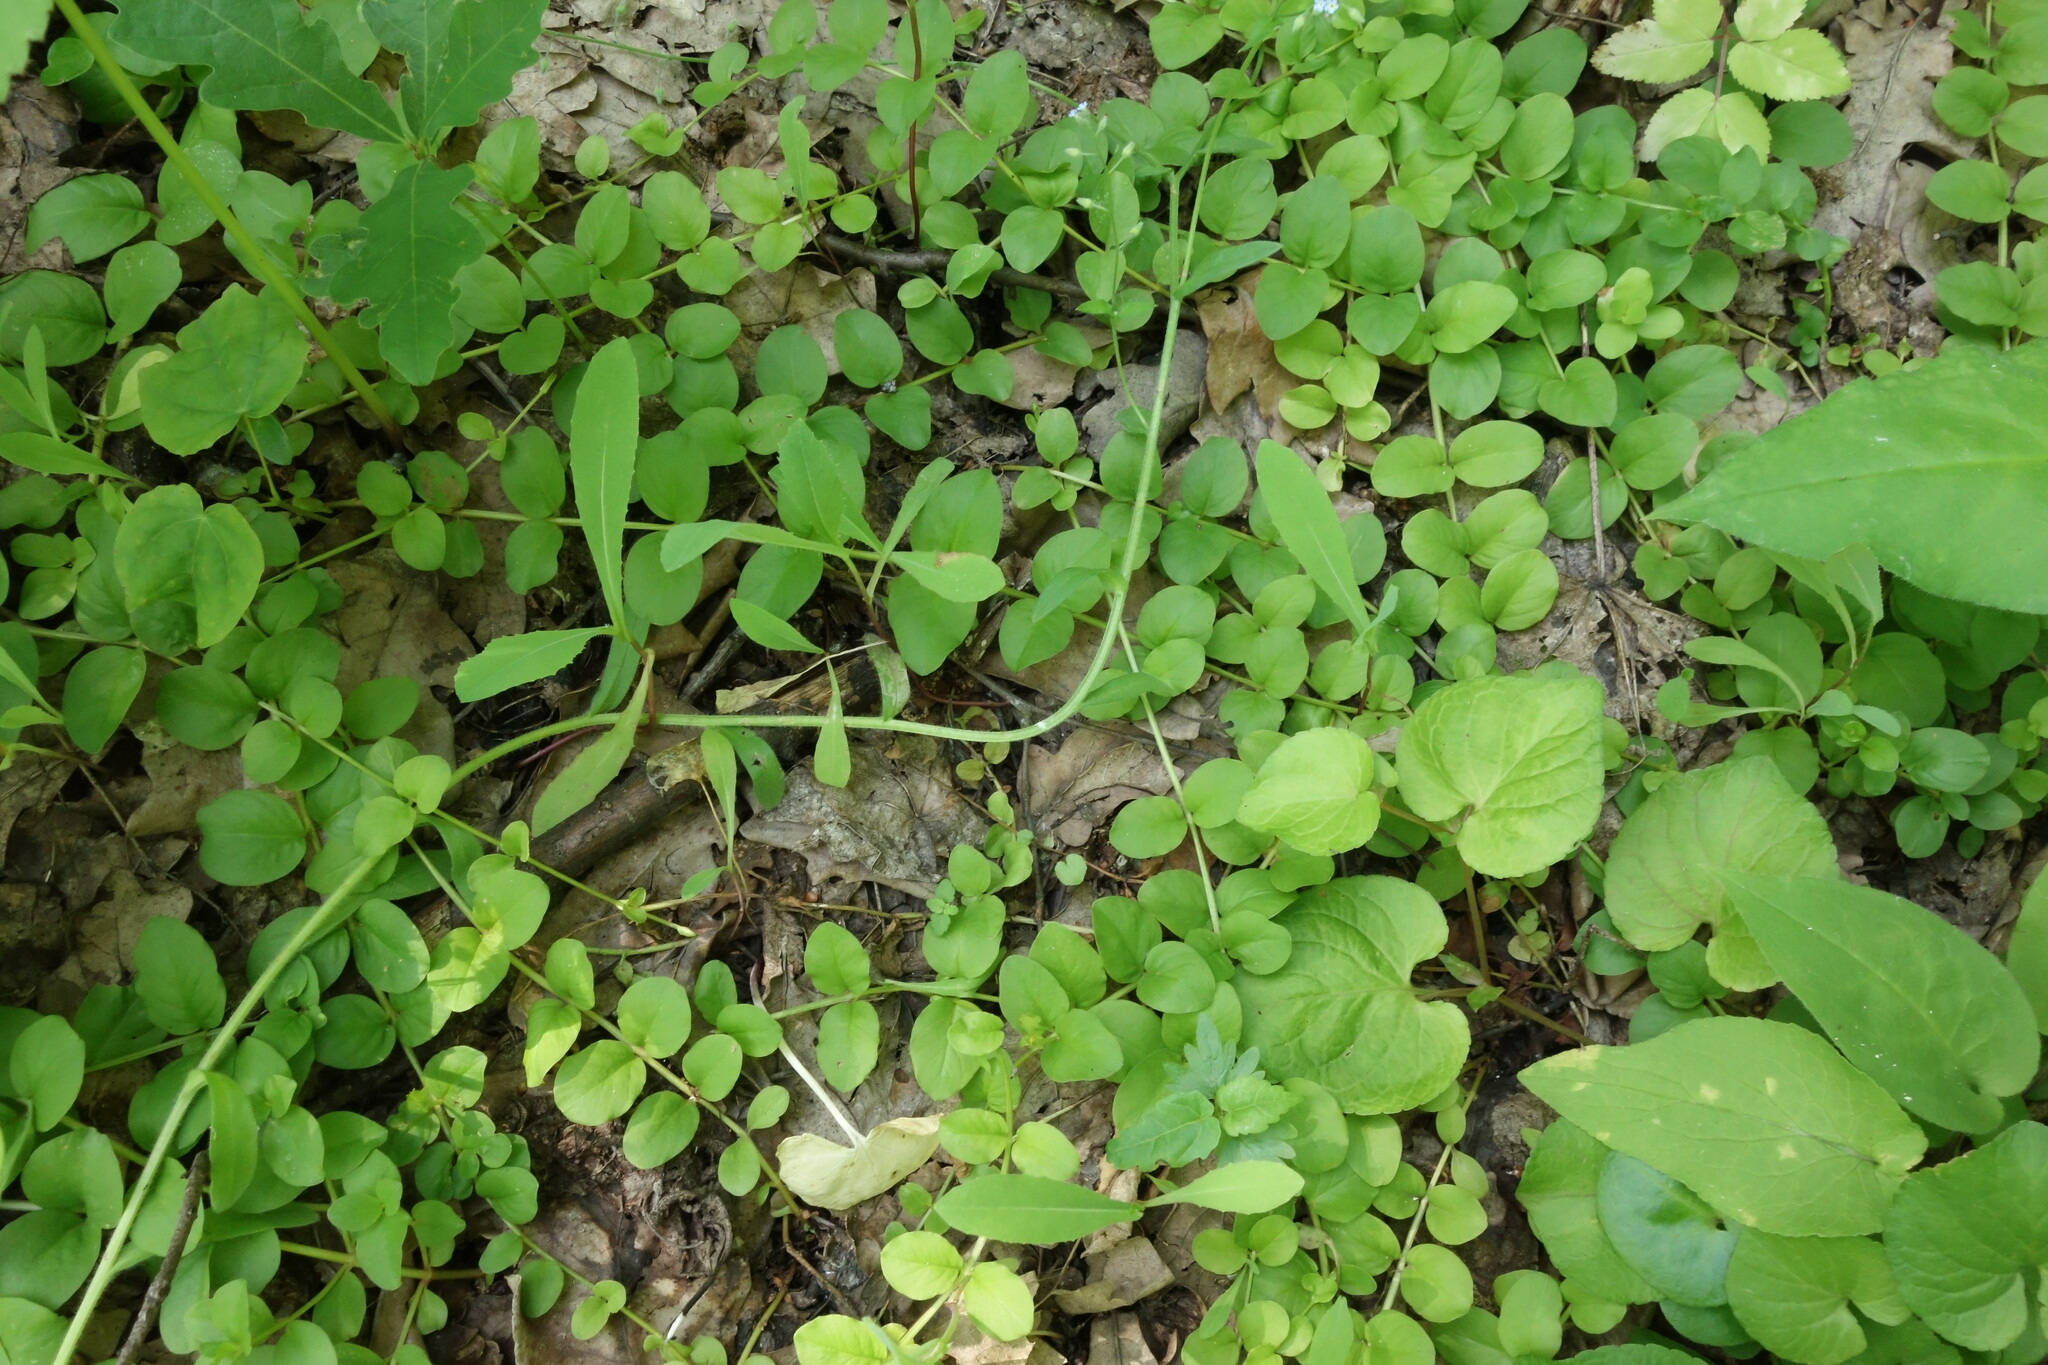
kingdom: Plantae
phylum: Tracheophyta
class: Magnoliopsida
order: Ericales
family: Primulaceae
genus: Lysimachia
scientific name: Lysimachia nummularia
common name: Moneywort
